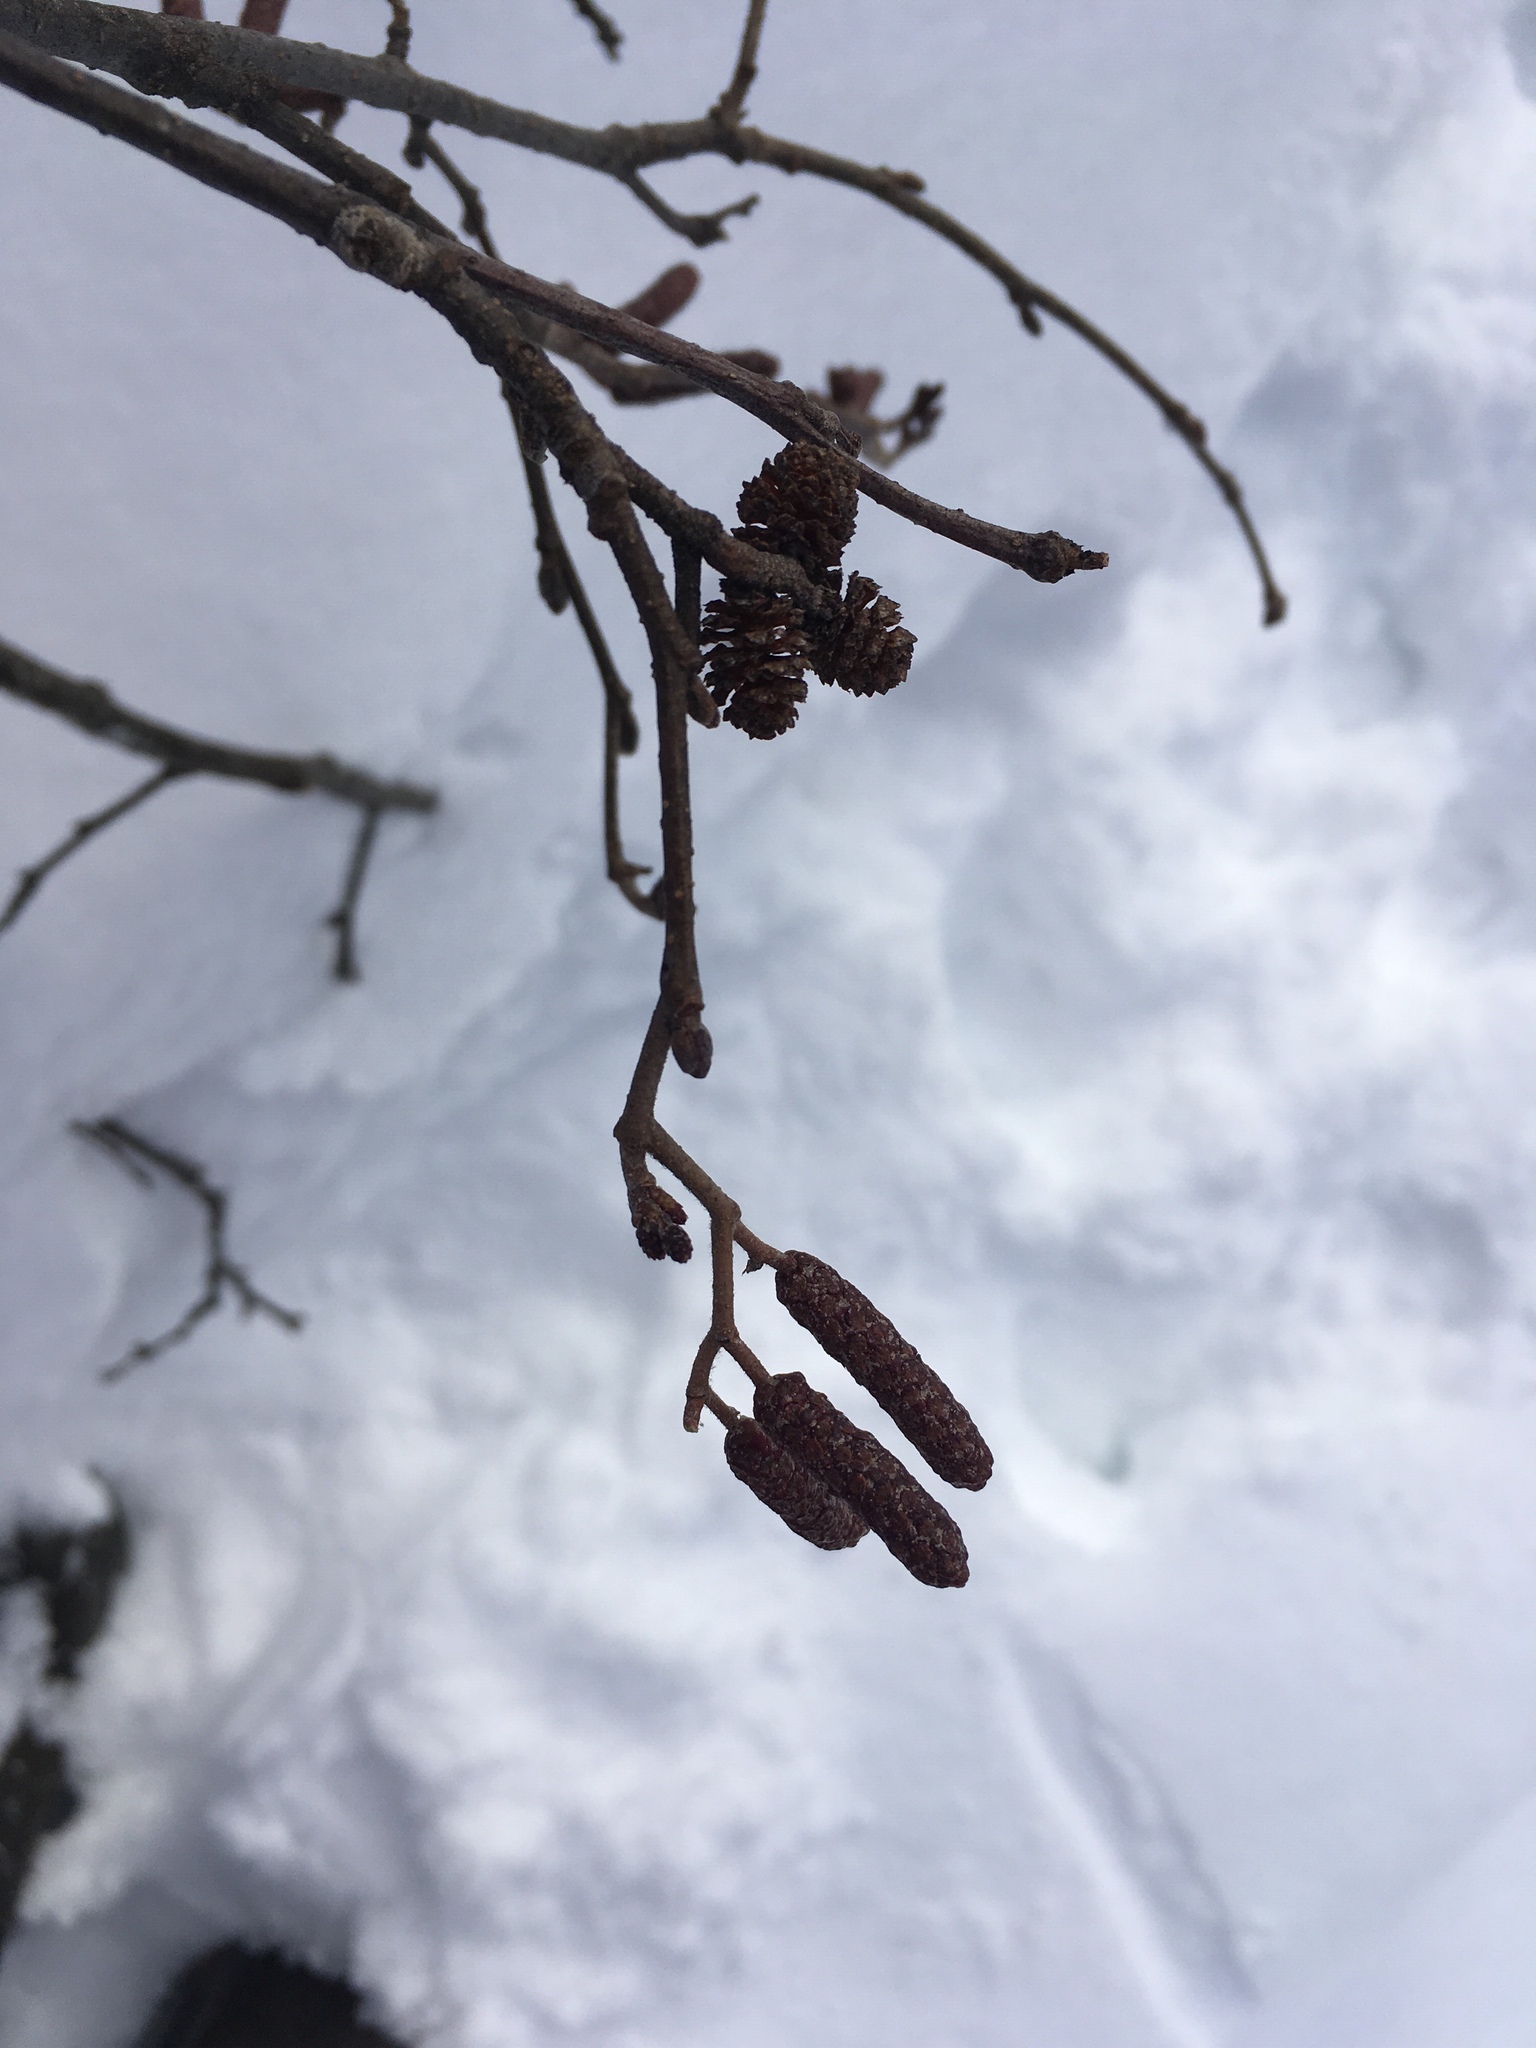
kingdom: Plantae
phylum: Tracheophyta
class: Magnoliopsida
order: Fagales
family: Betulaceae
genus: Alnus
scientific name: Alnus incana
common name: Grey alder
